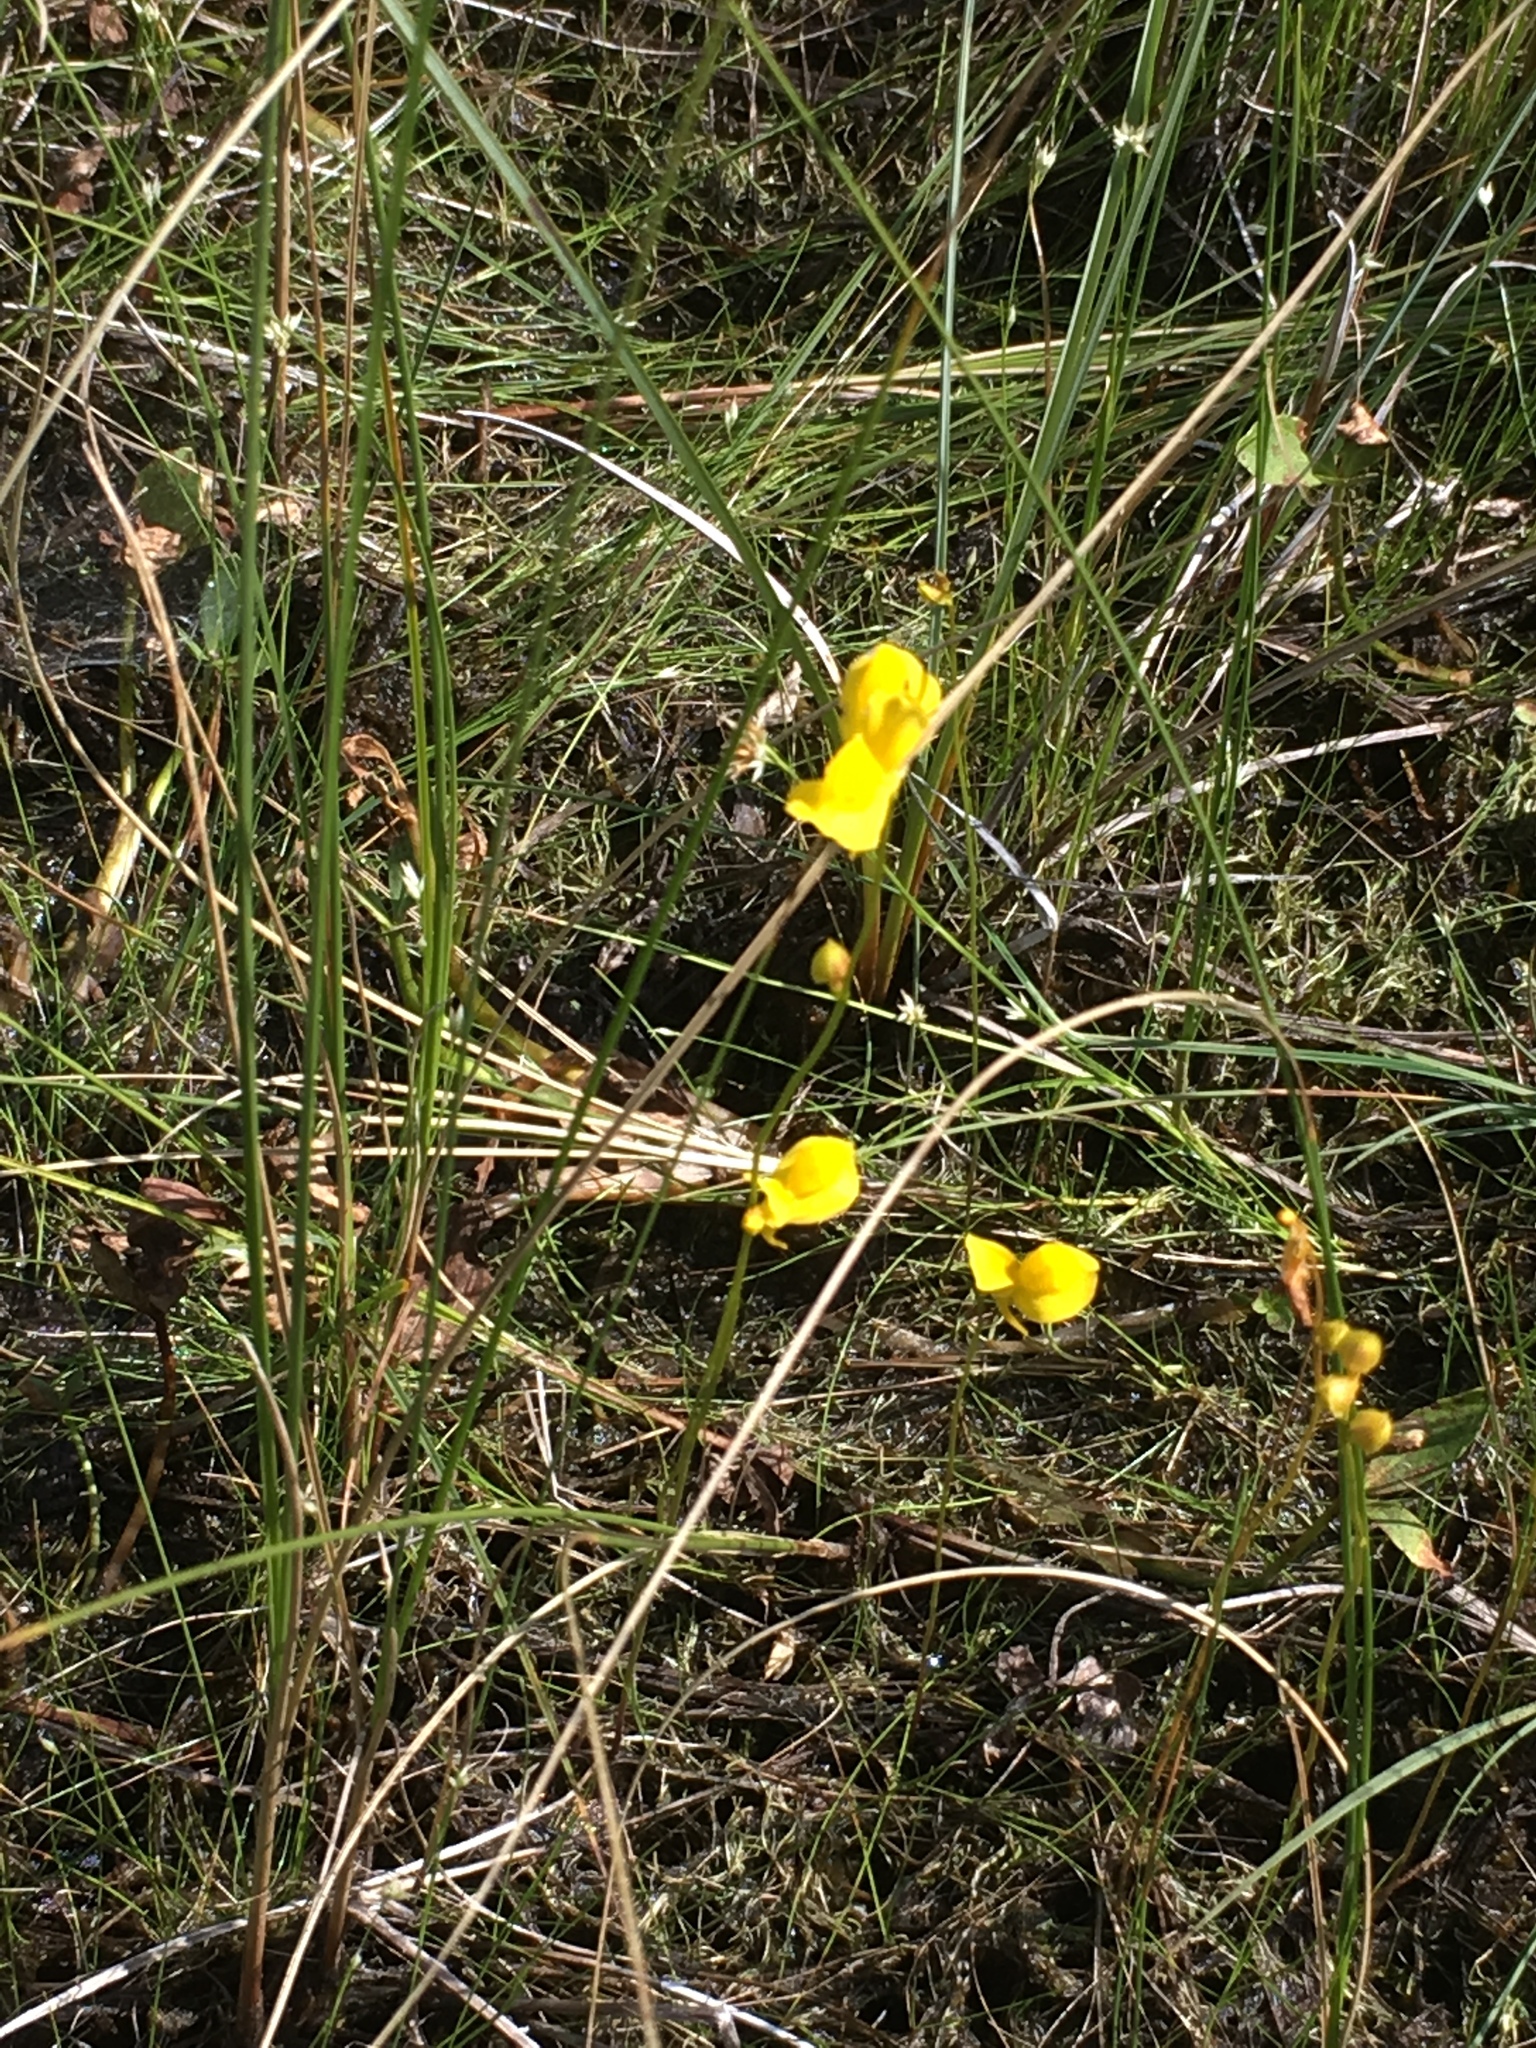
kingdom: Plantae
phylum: Tracheophyta
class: Magnoliopsida
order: Lamiales
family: Lentibulariaceae
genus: Utricularia
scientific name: Utricularia cornuta
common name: Horned bladderwort
